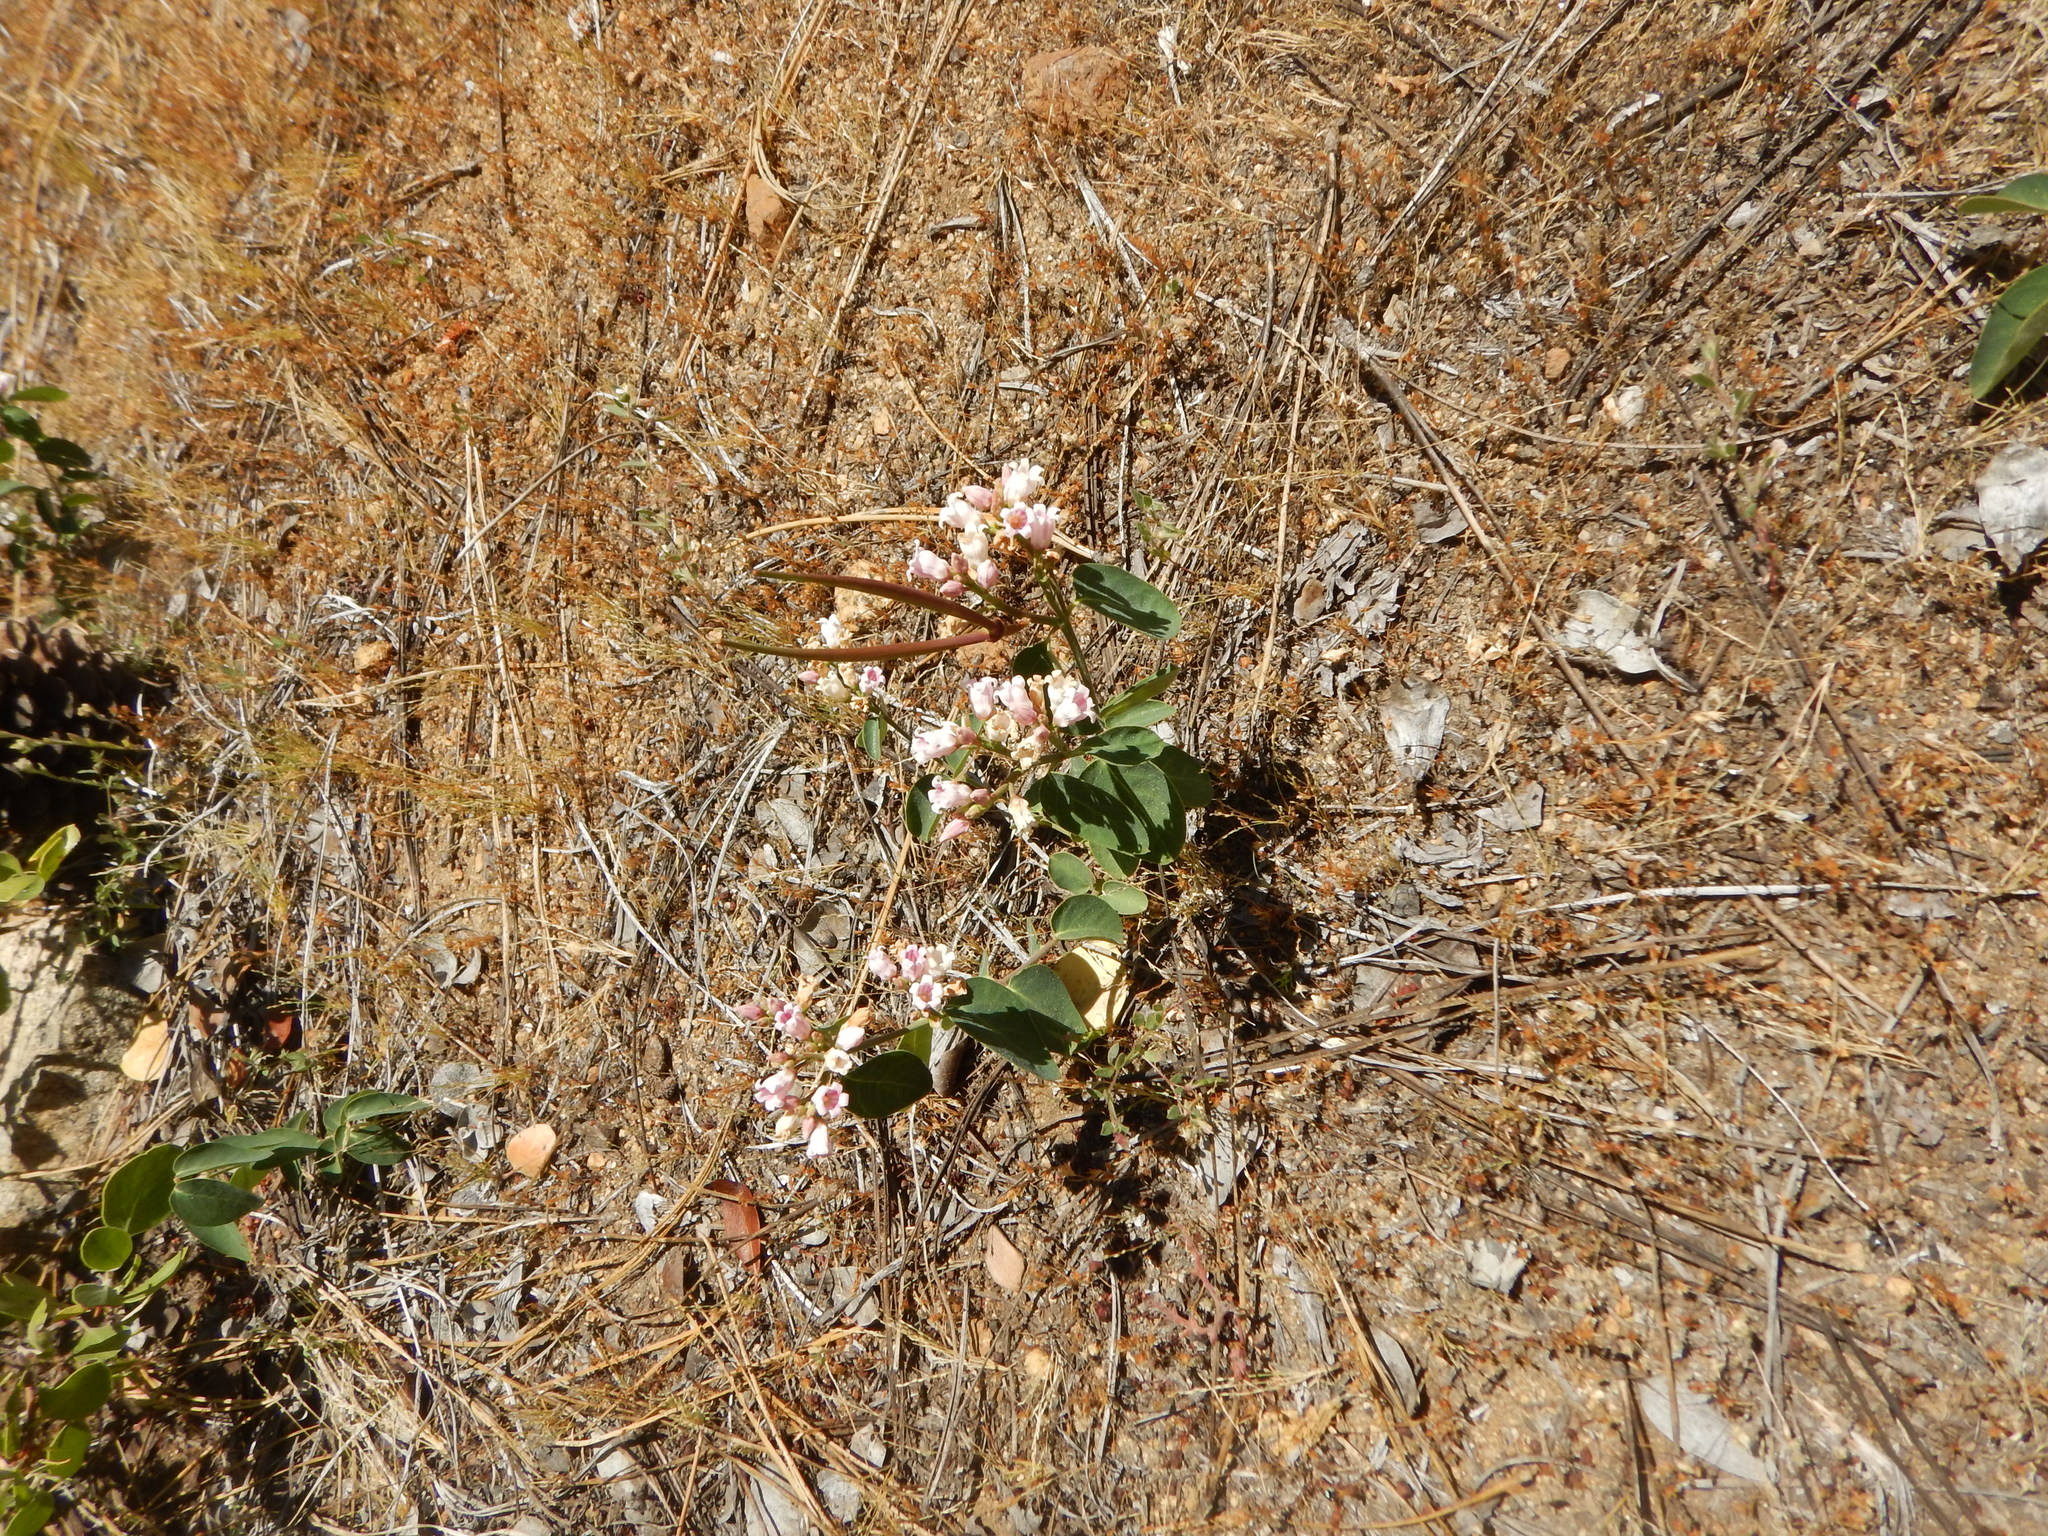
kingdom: Plantae
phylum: Tracheophyta
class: Magnoliopsida
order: Gentianales
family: Apocynaceae
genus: Apocynum
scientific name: Apocynum androsaemifolium
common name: Spreading dogbane
